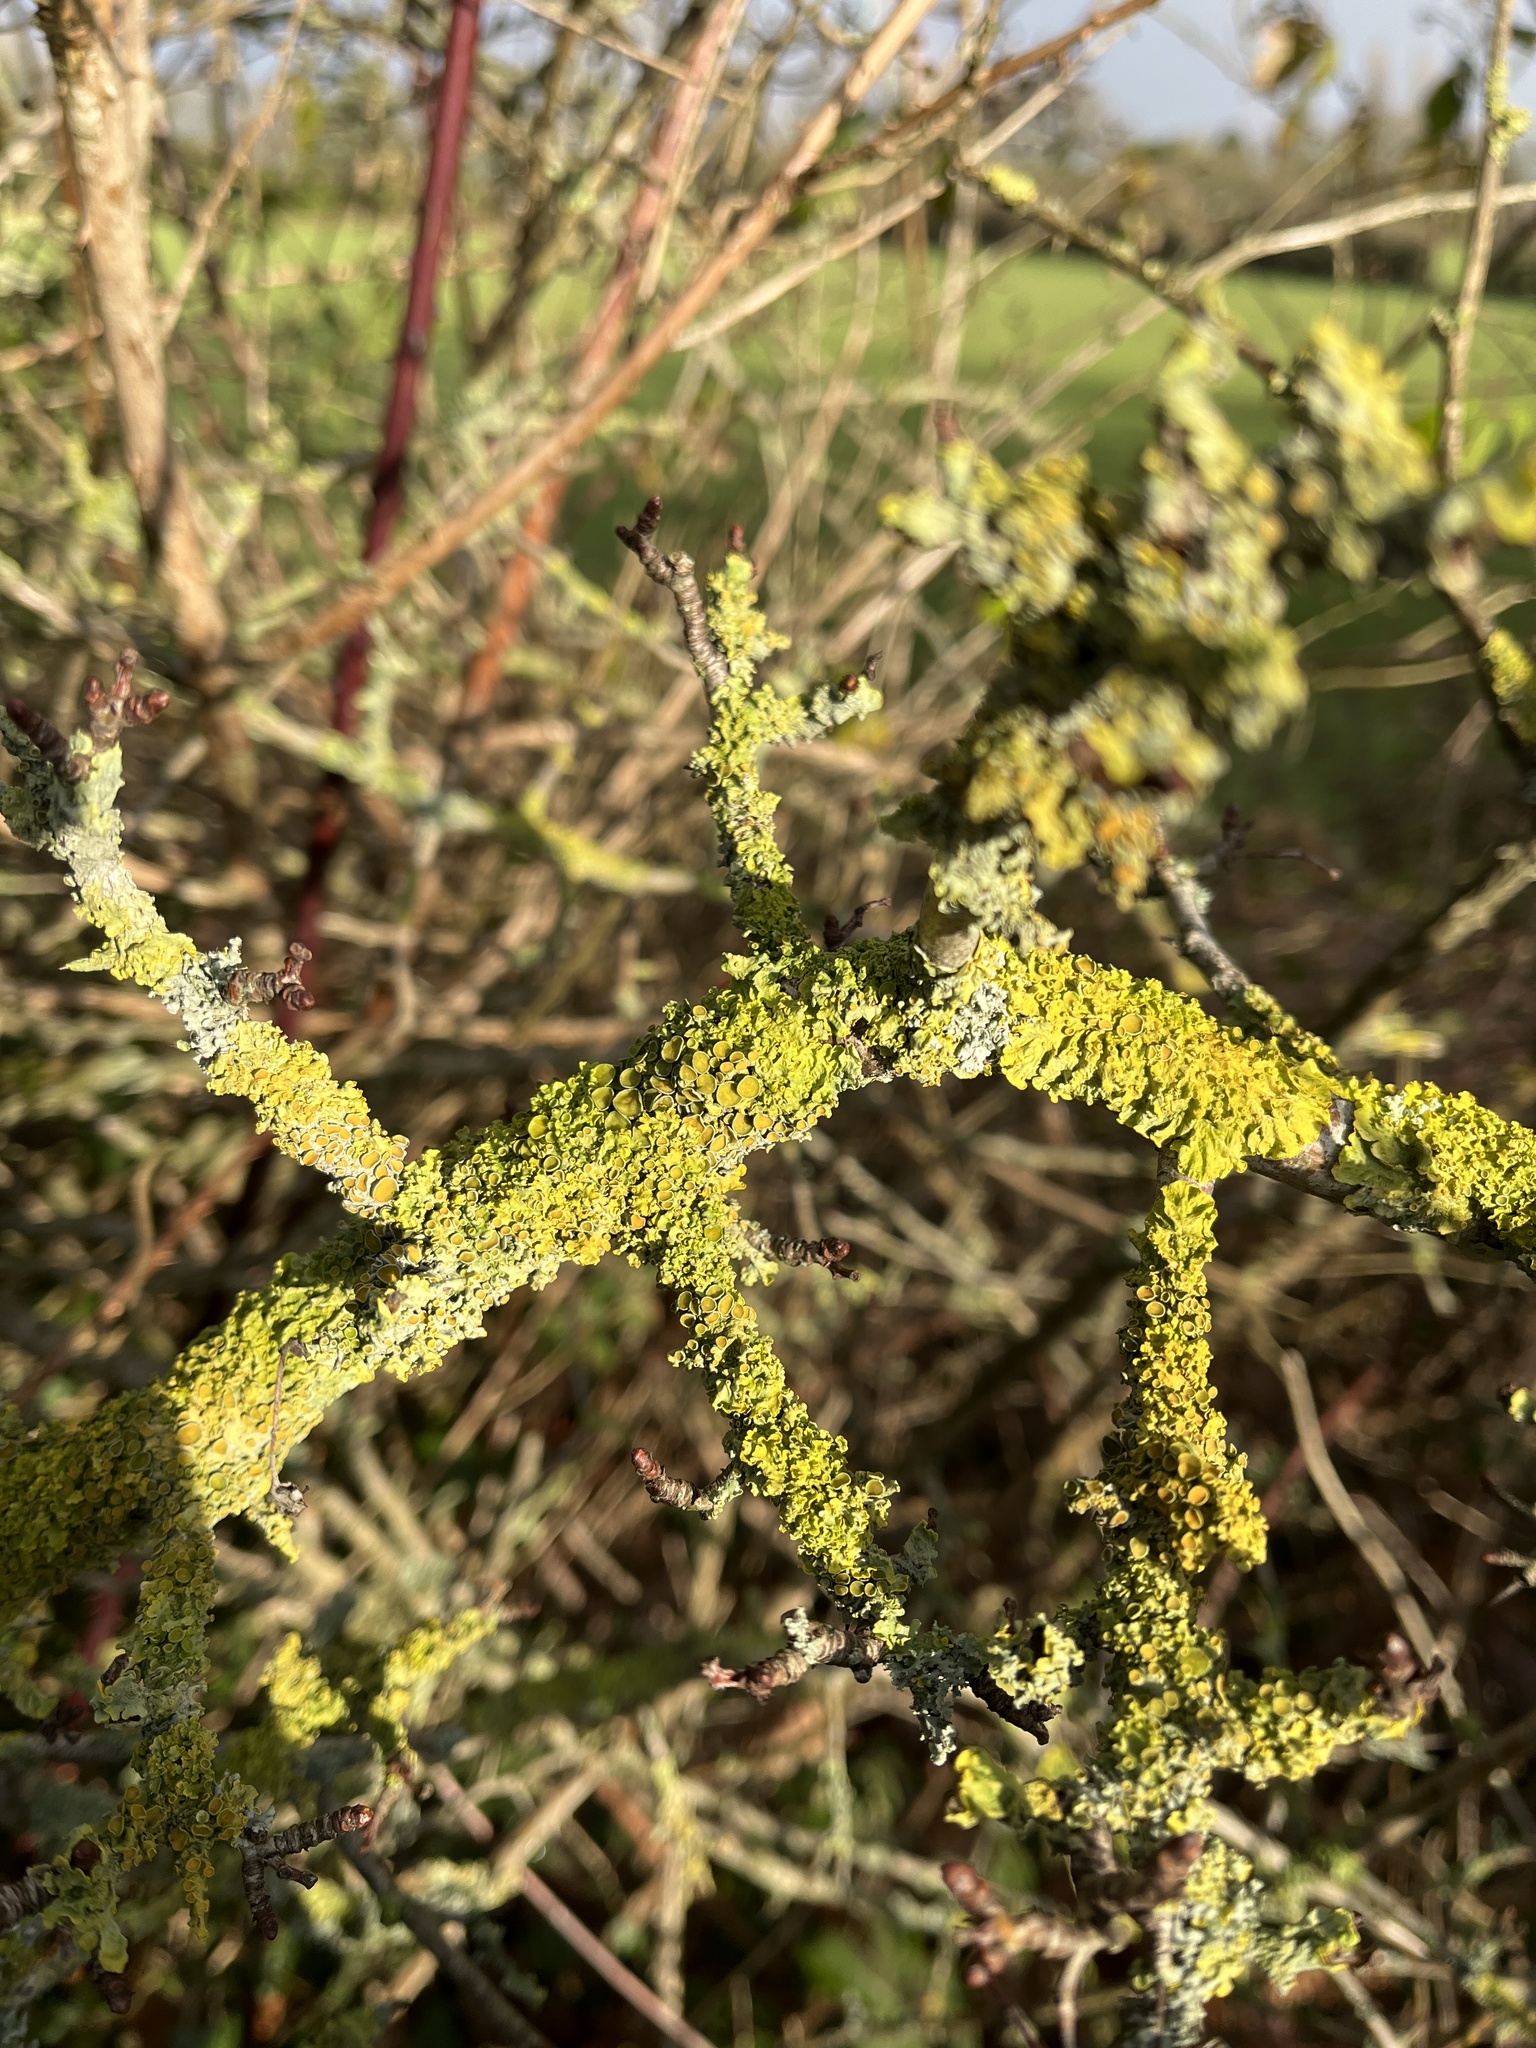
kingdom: Fungi
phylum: Ascomycota
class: Lecanoromycetes
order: Teloschistales
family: Teloschistaceae
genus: Xanthoria
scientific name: Xanthoria parietina
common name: Common orange lichen
